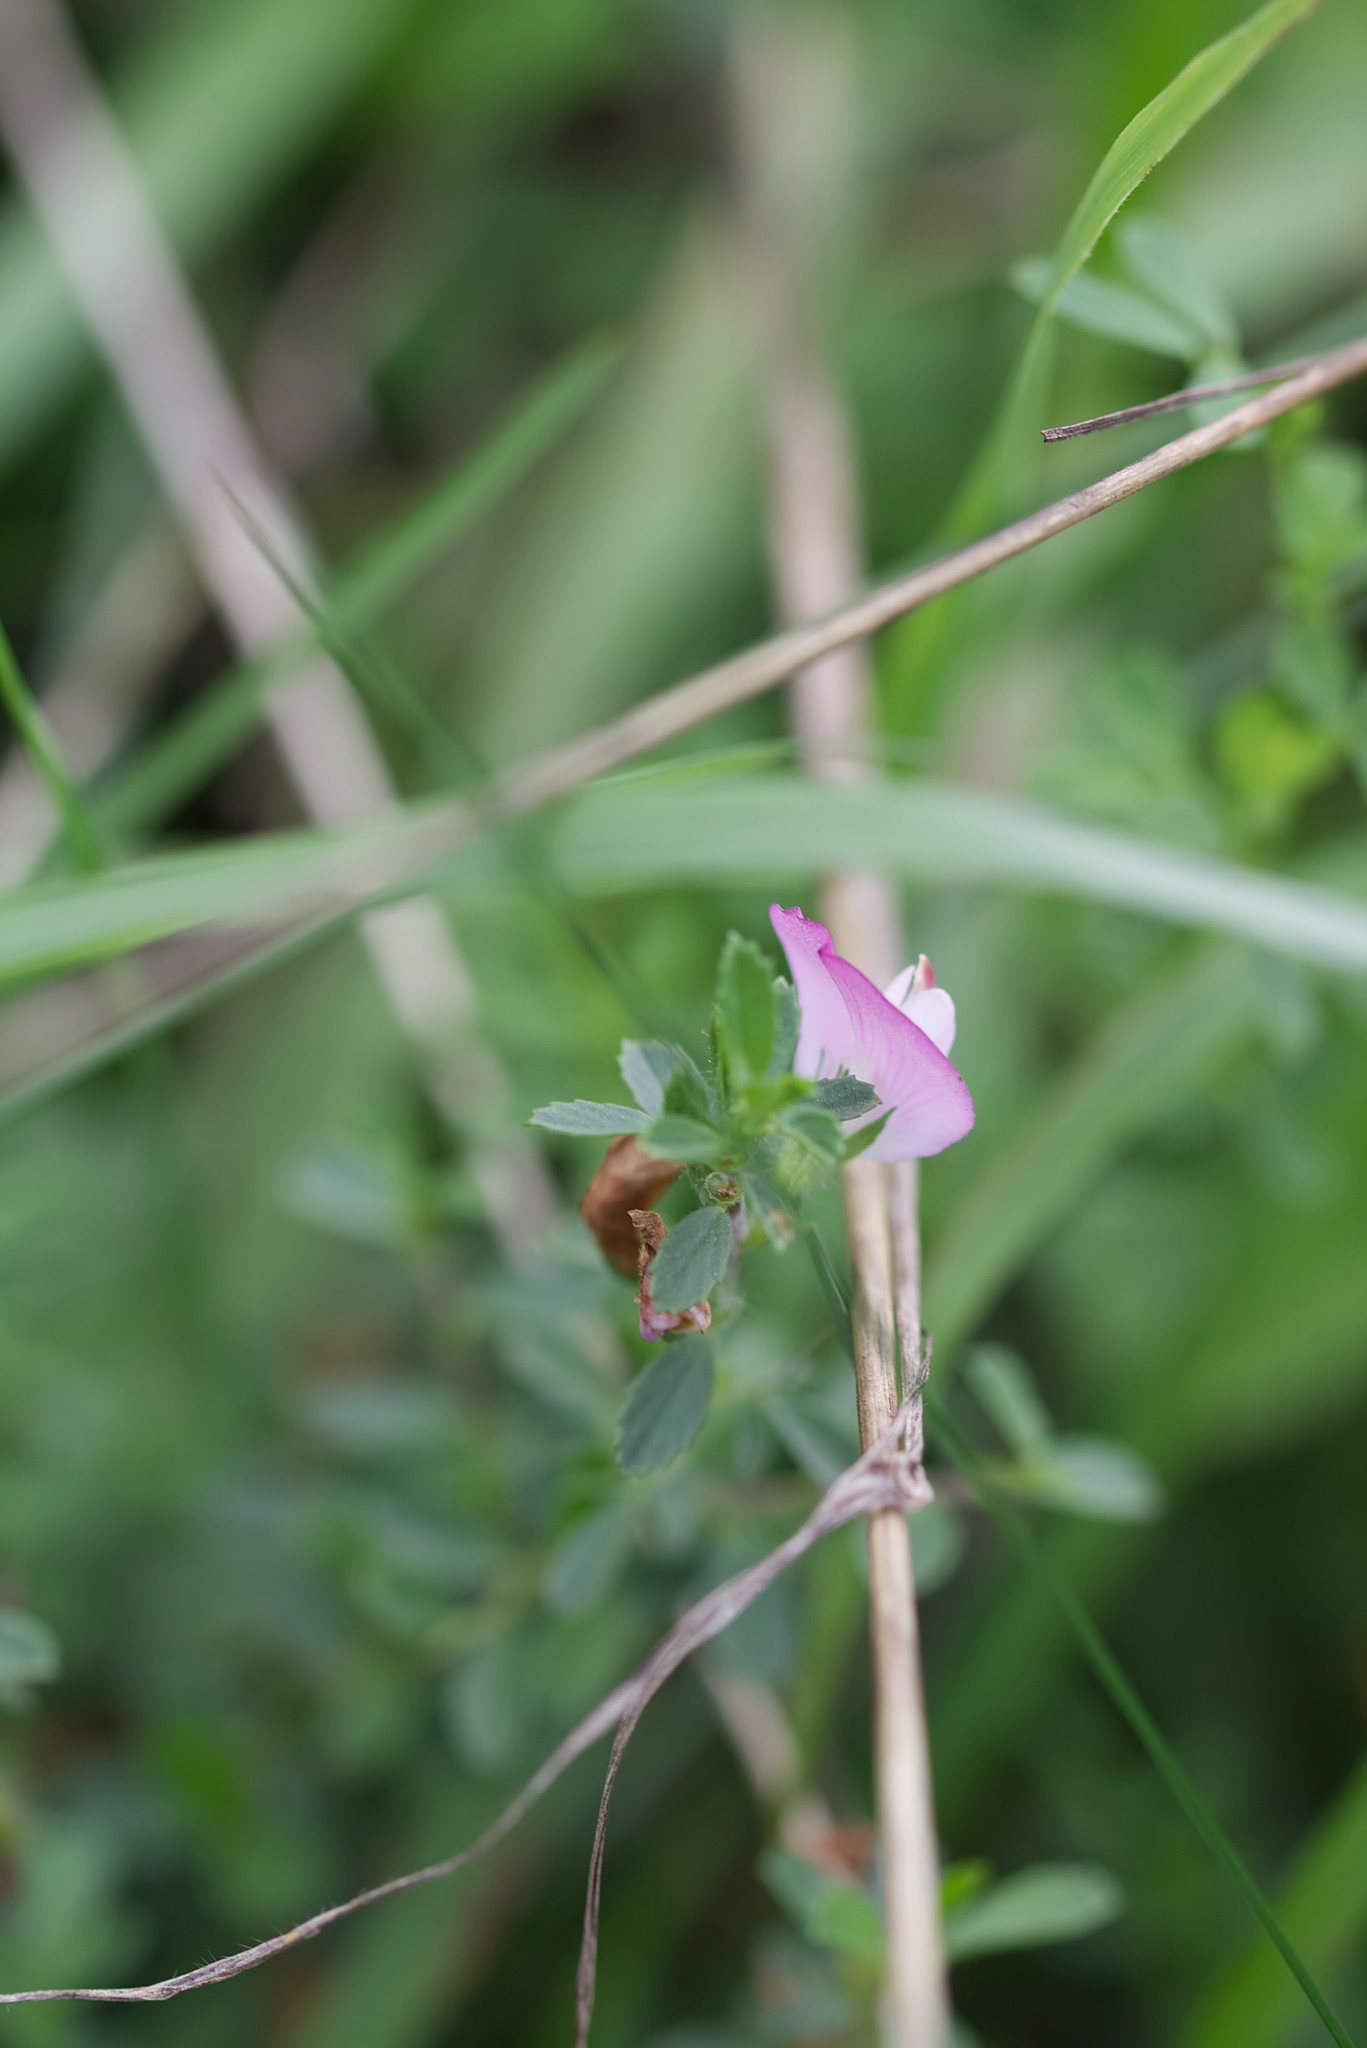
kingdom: Plantae
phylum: Tracheophyta
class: Magnoliopsida
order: Fabales
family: Fabaceae
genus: Ononis
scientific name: Ononis spinosa
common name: Spiny restharrow
